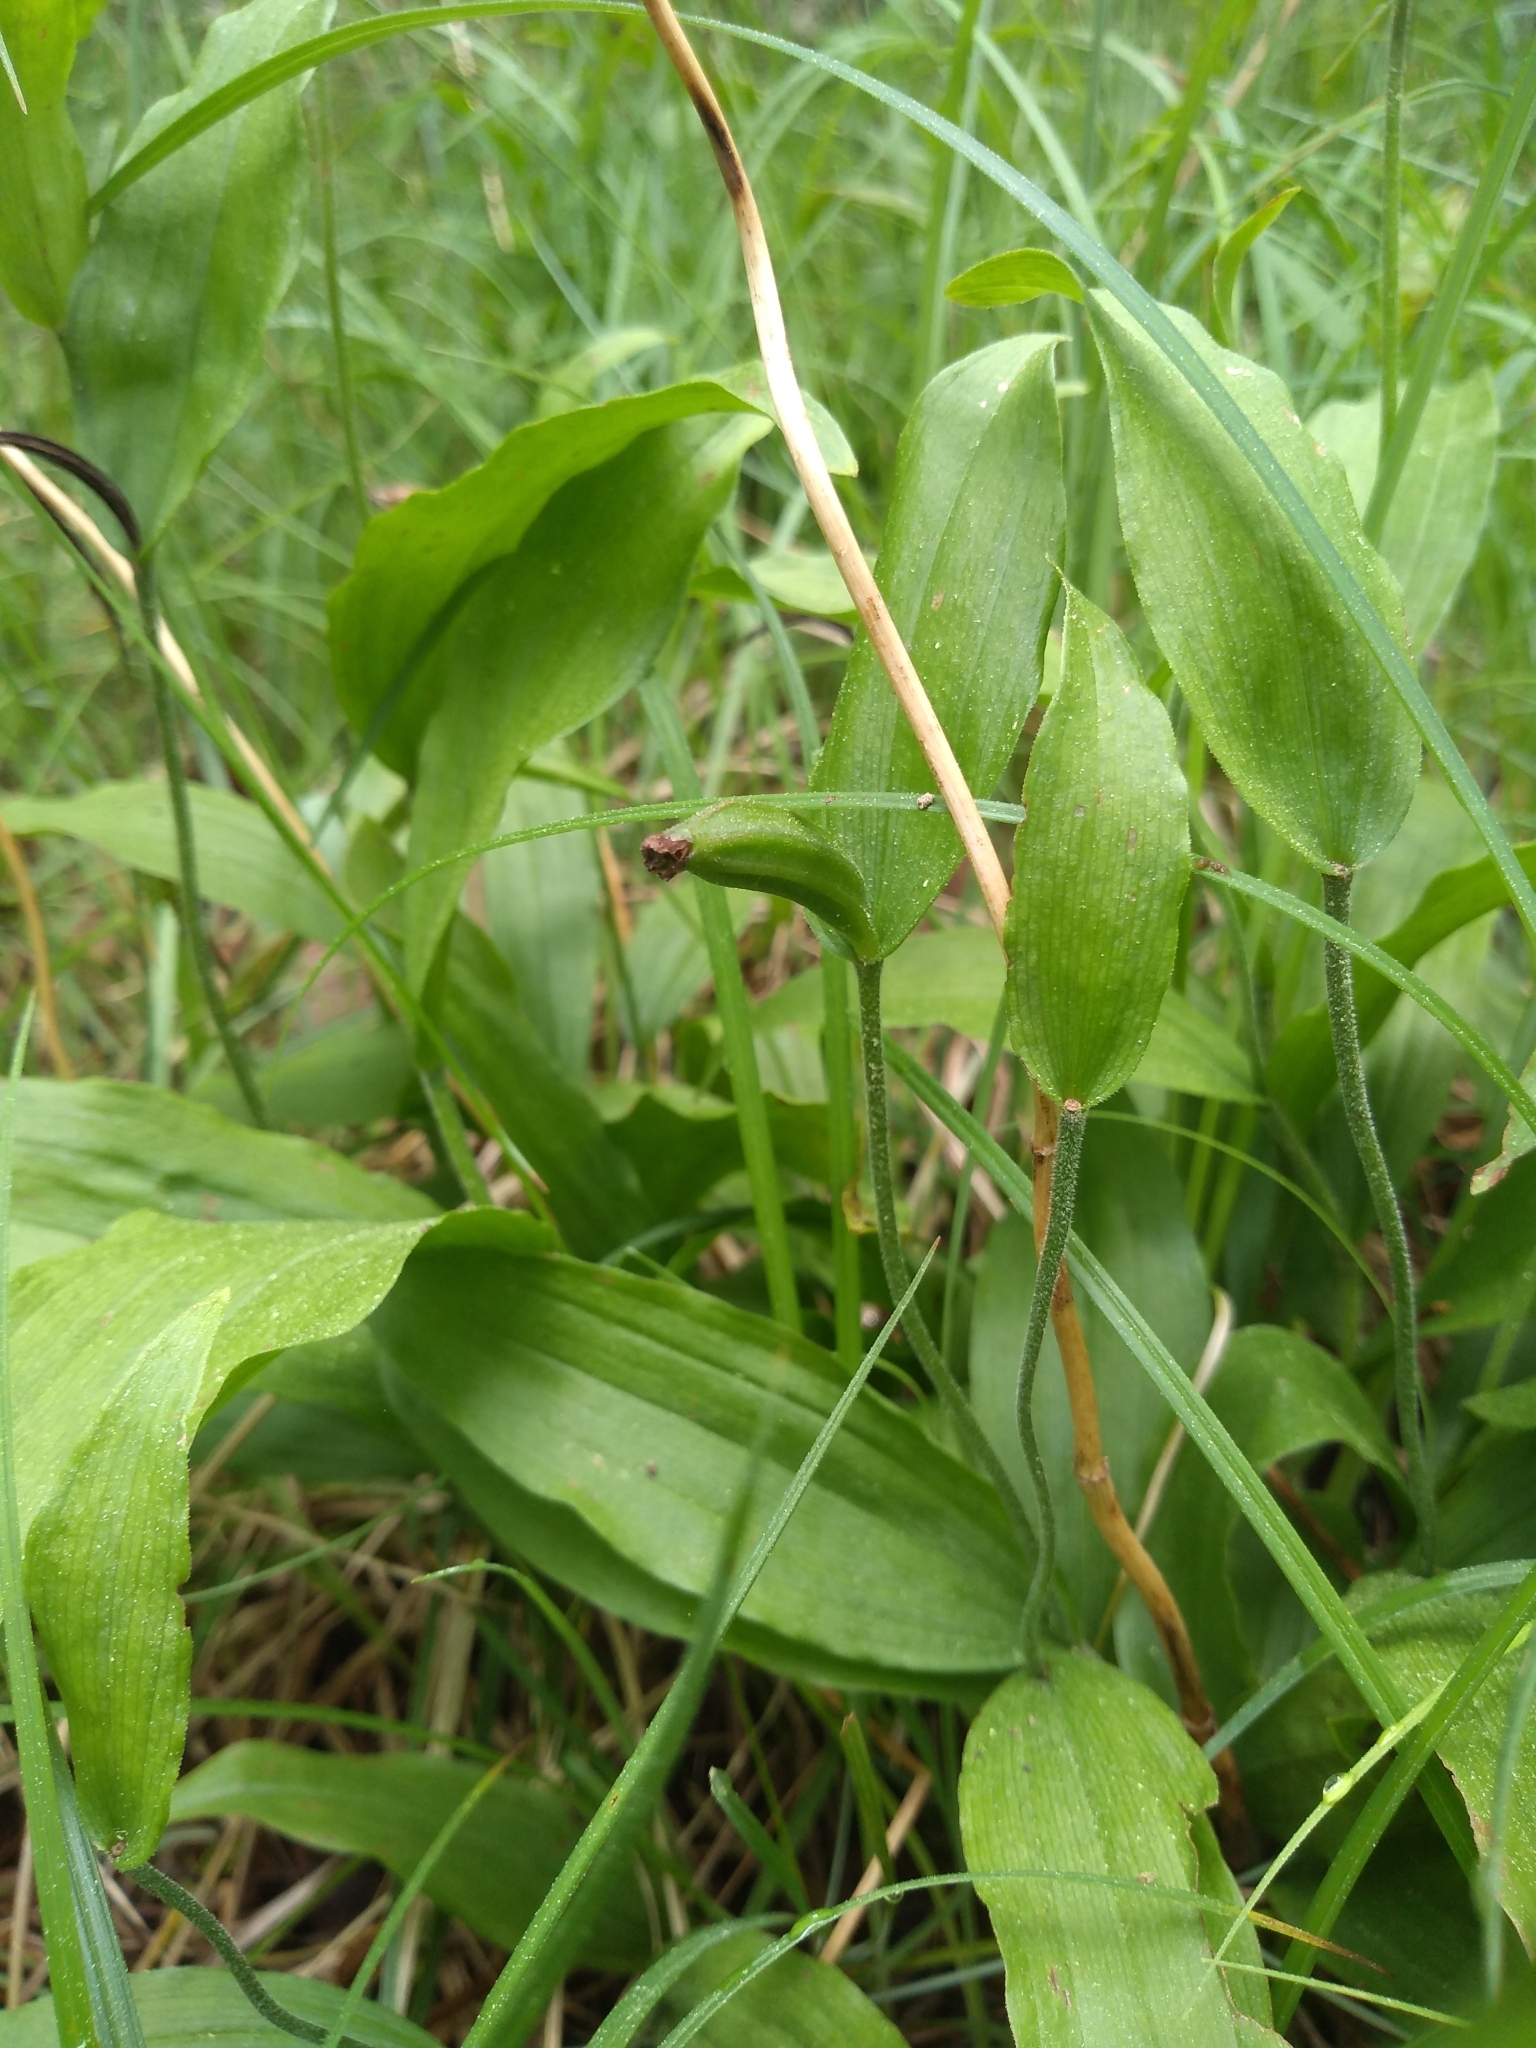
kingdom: Plantae
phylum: Tracheophyta
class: Liliopsida
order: Asparagales
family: Orchidaceae
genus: Cypripedium
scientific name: Cypripedium arietinum
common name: Ram's-head
